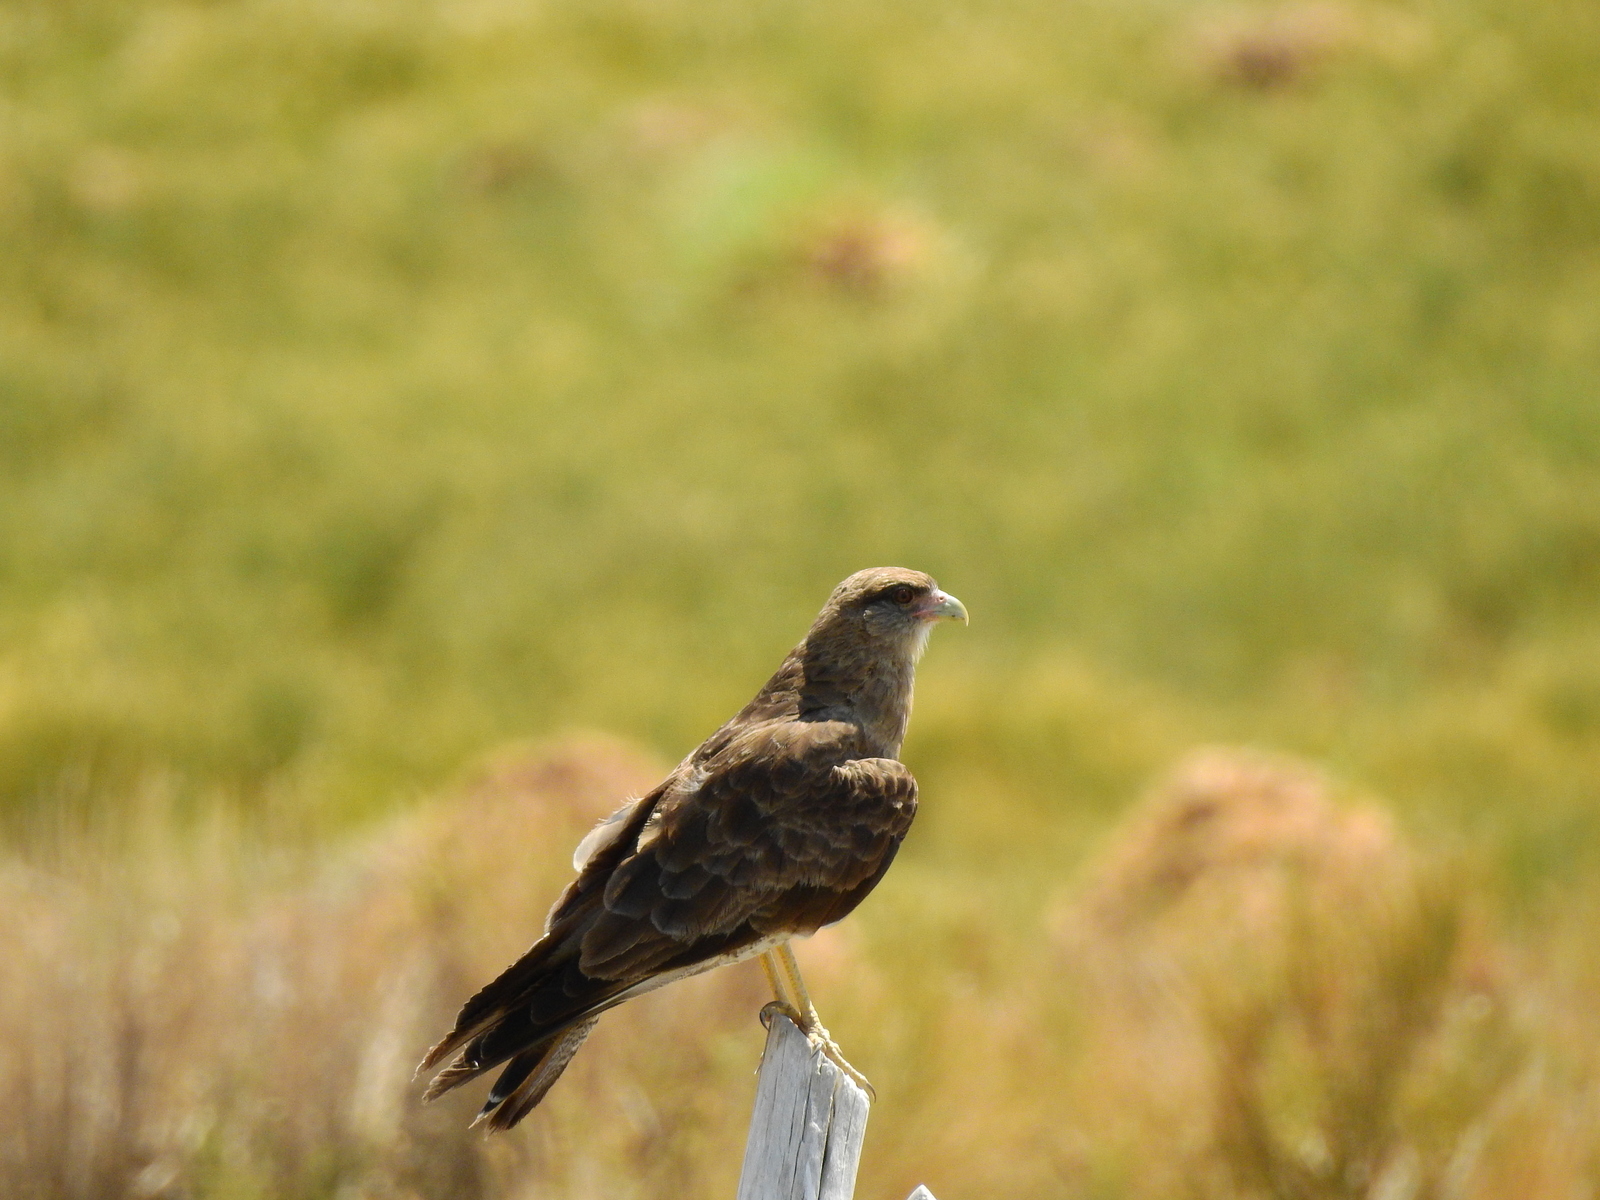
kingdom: Animalia
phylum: Chordata
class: Aves
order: Falconiformes
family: Falconidae
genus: Daptrius
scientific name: Daptrius
